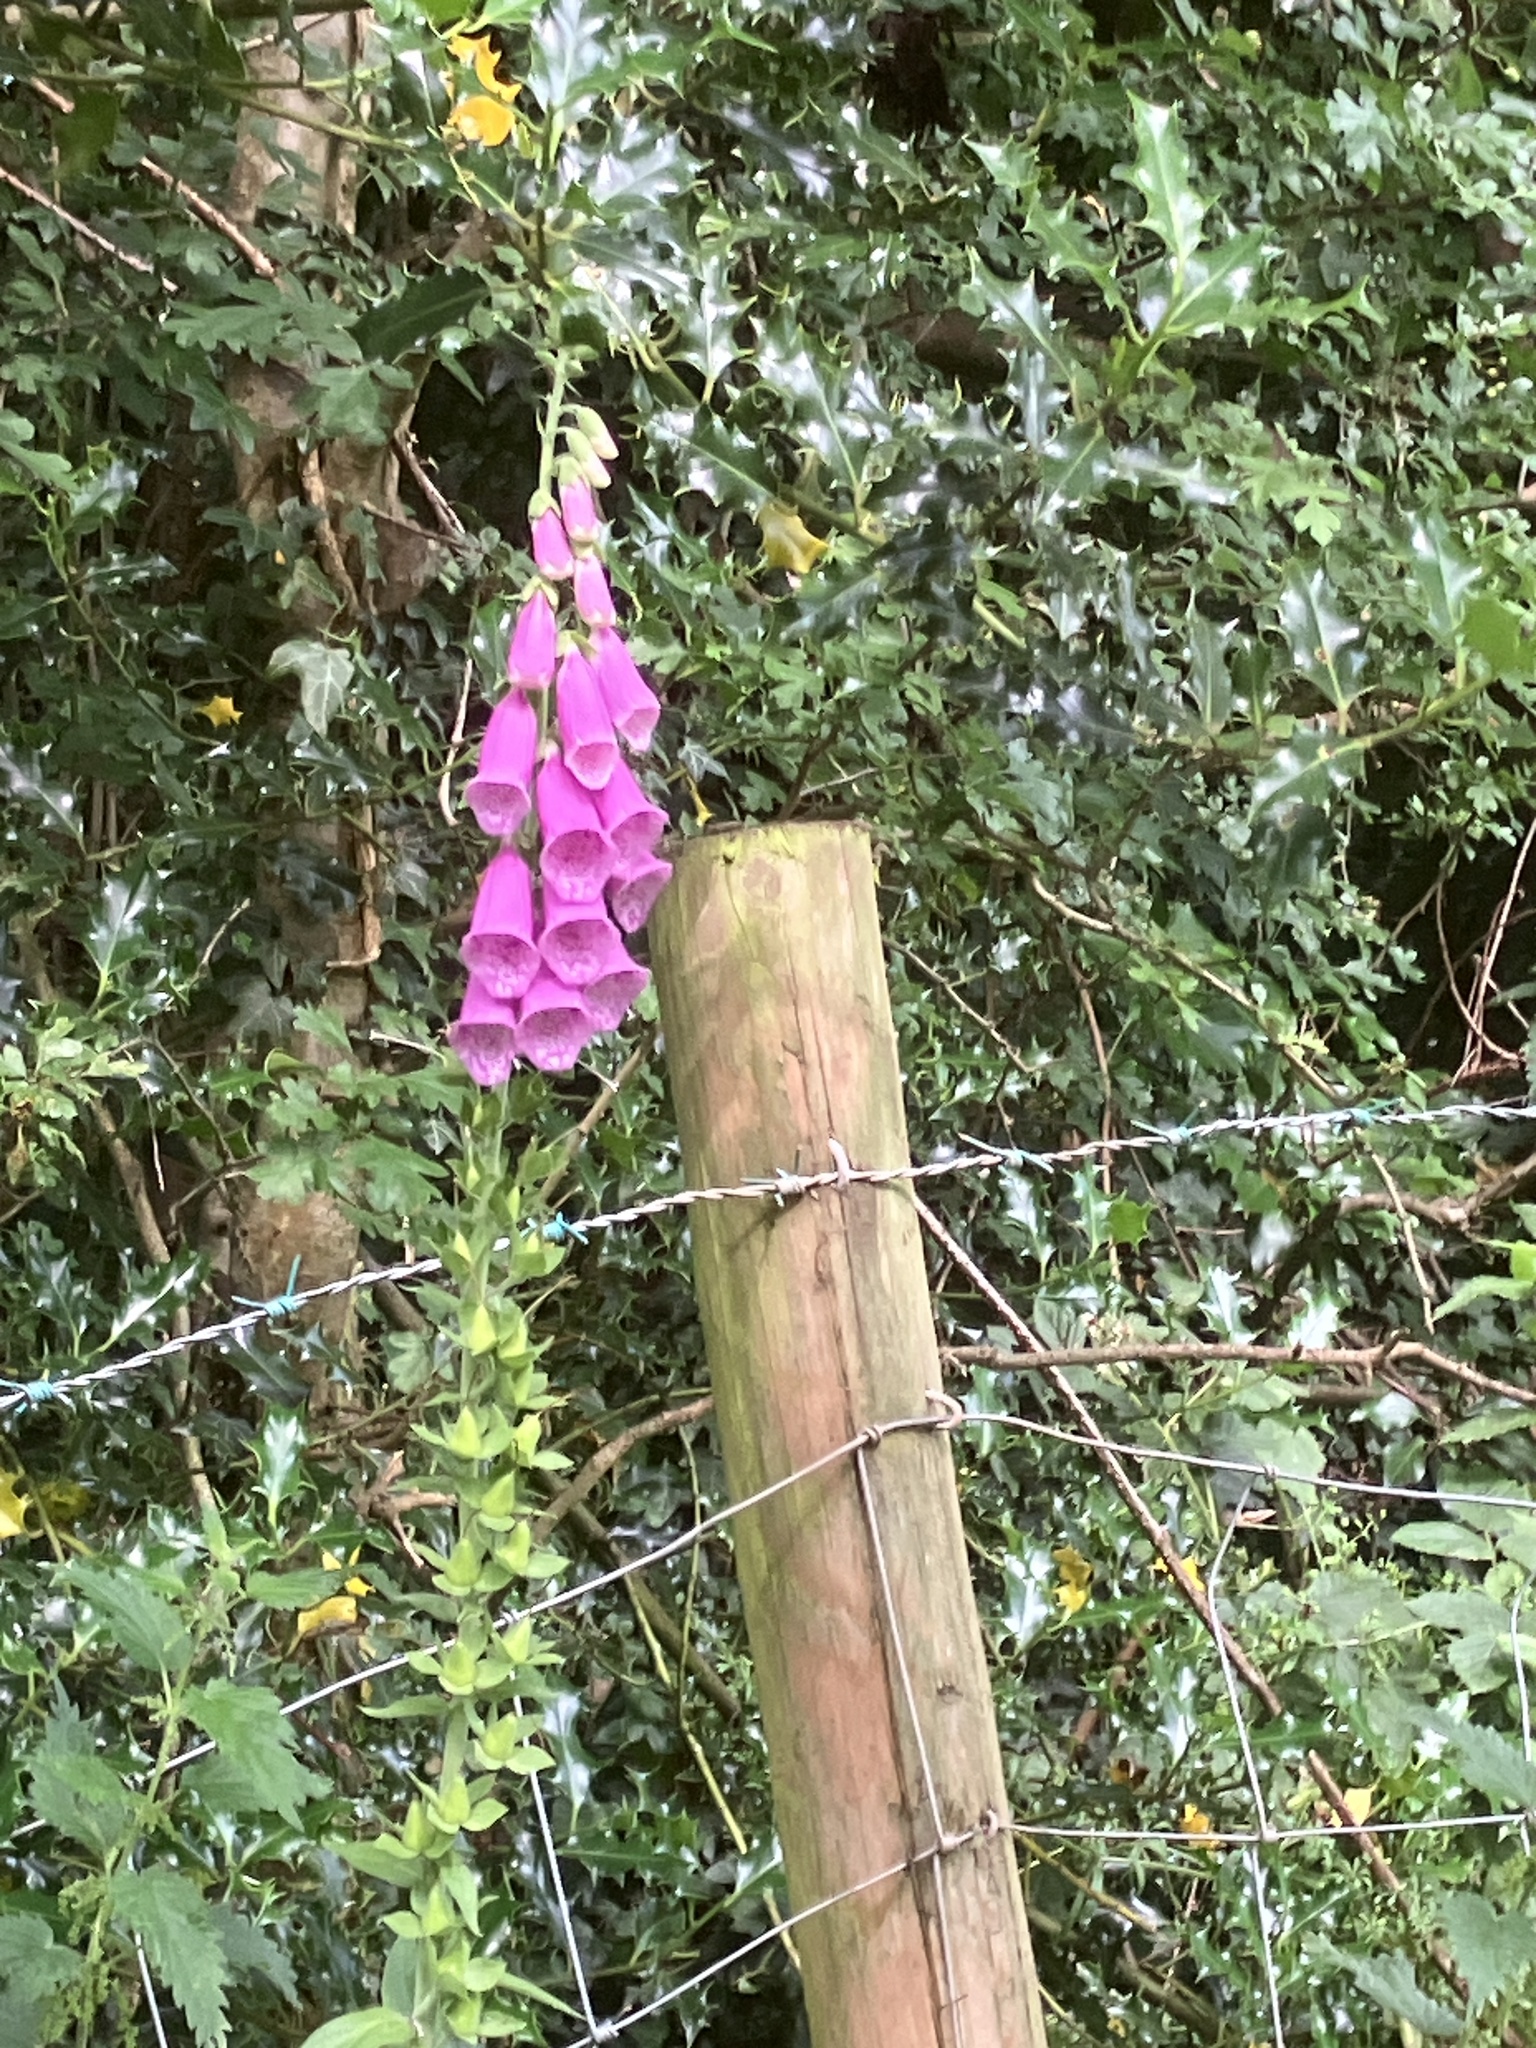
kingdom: Plantae
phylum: Tracheophyta
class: Magnoliopsida
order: Lamiales
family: Plantaginaceae
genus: Digitalis
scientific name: Digitalis purpurea
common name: Foxglove
